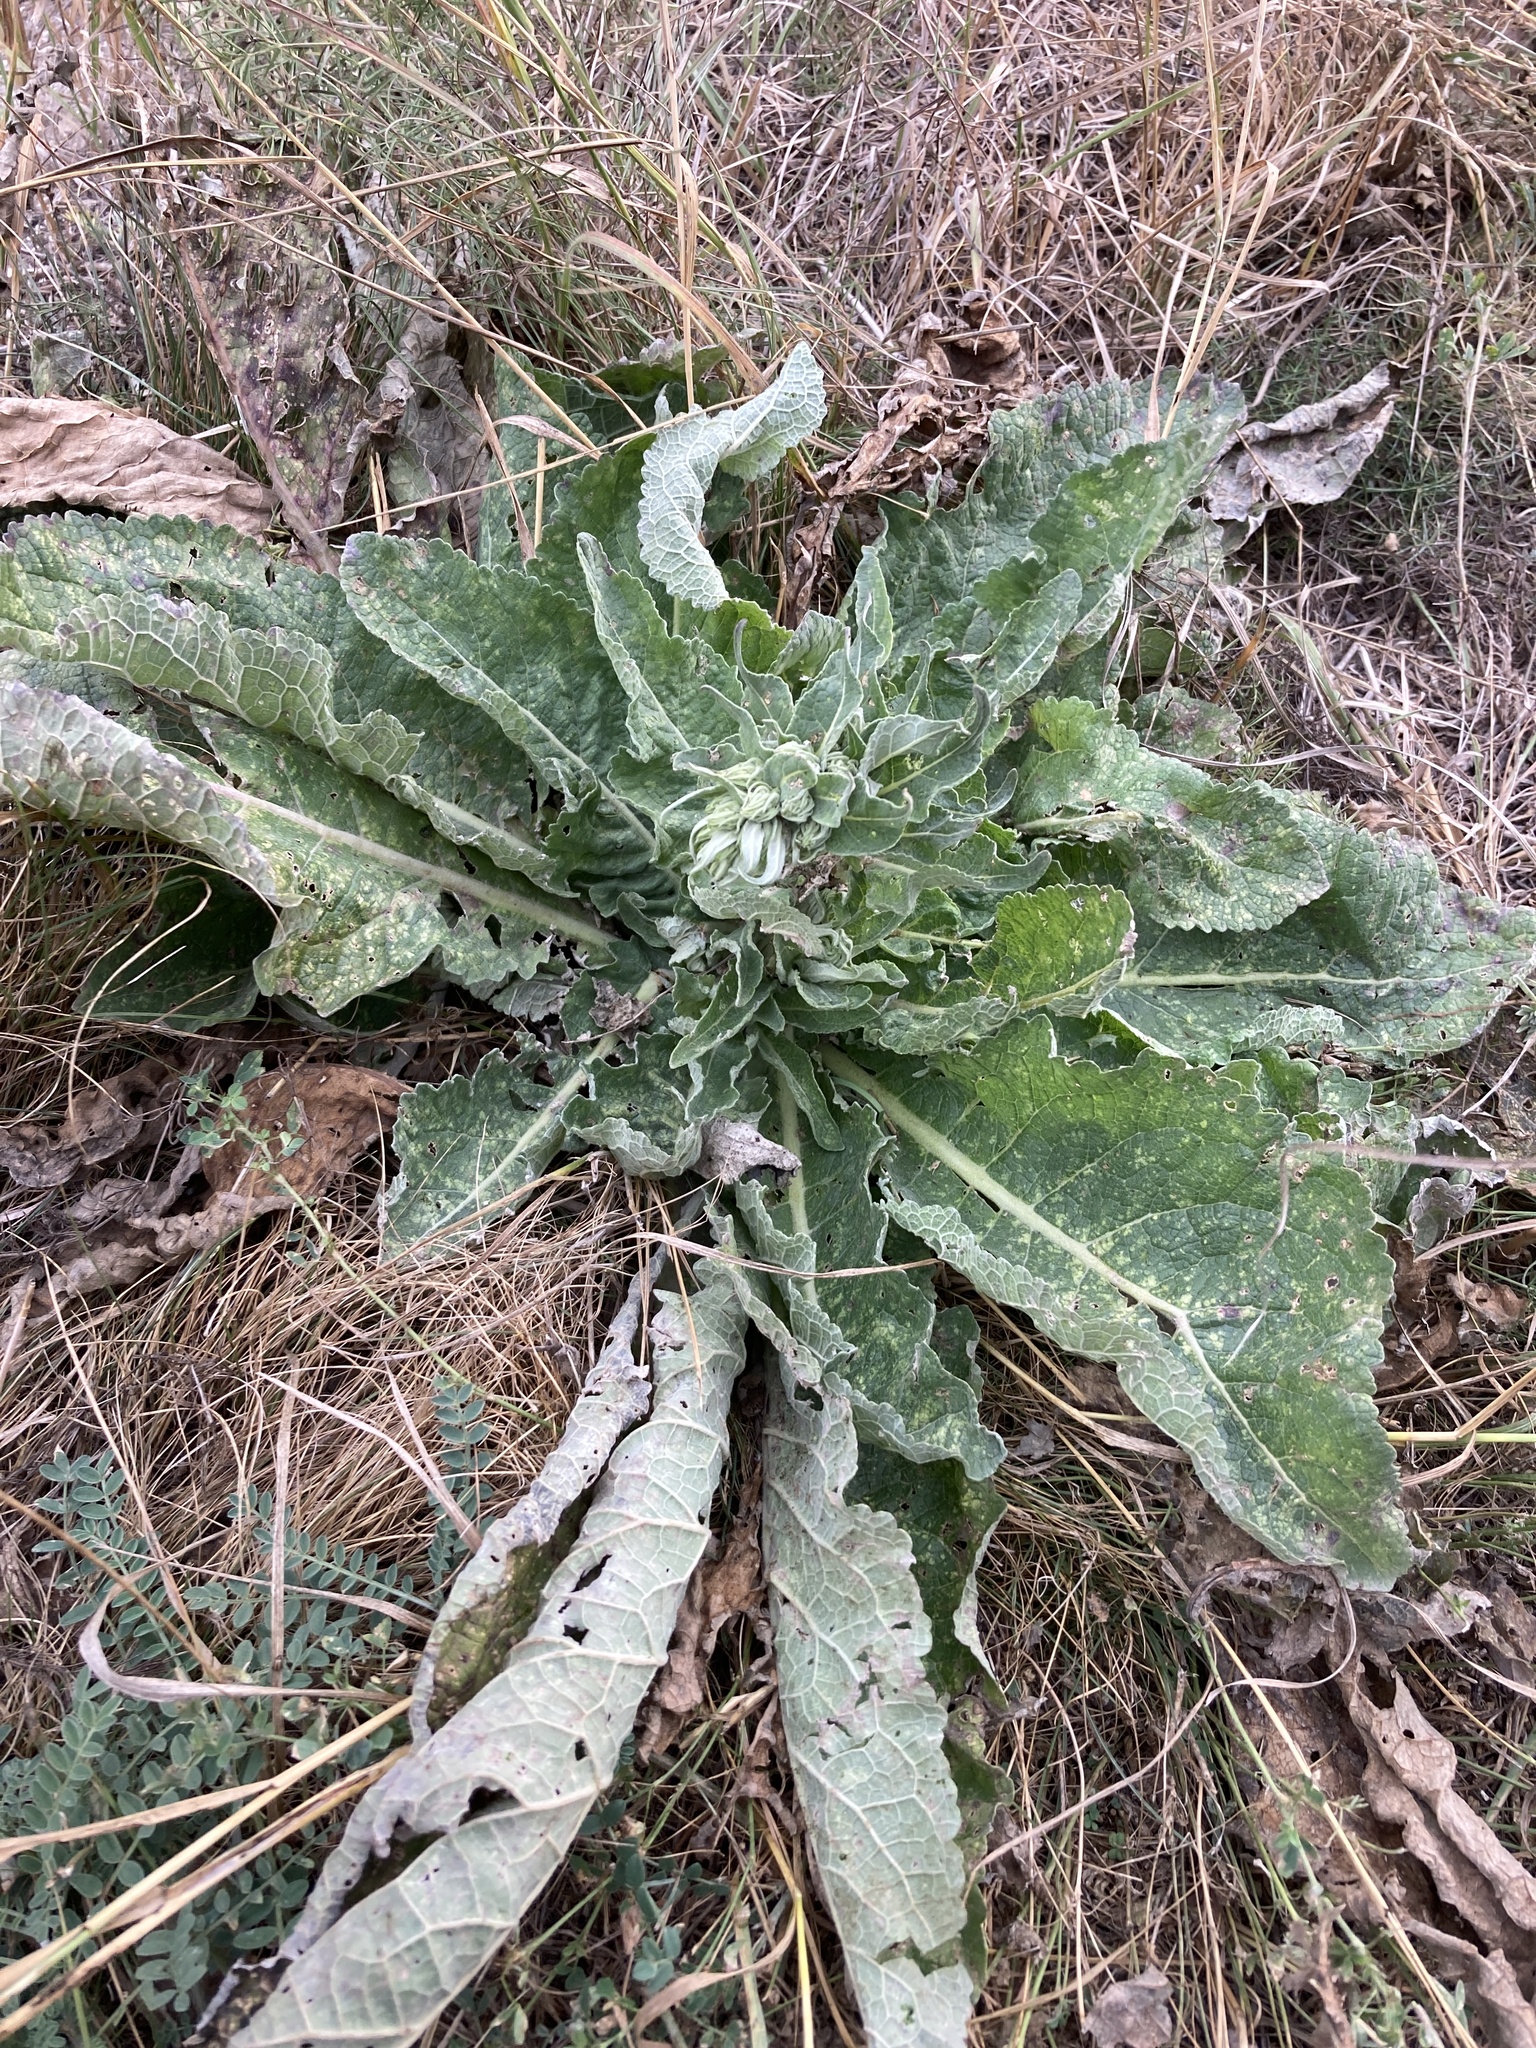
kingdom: Plantae
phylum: Tracheophyta
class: Magnoliopsida
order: Lamiales
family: Scrophulariaceae
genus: Verbascum
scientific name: Verbascum lychnitis
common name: White mullein
